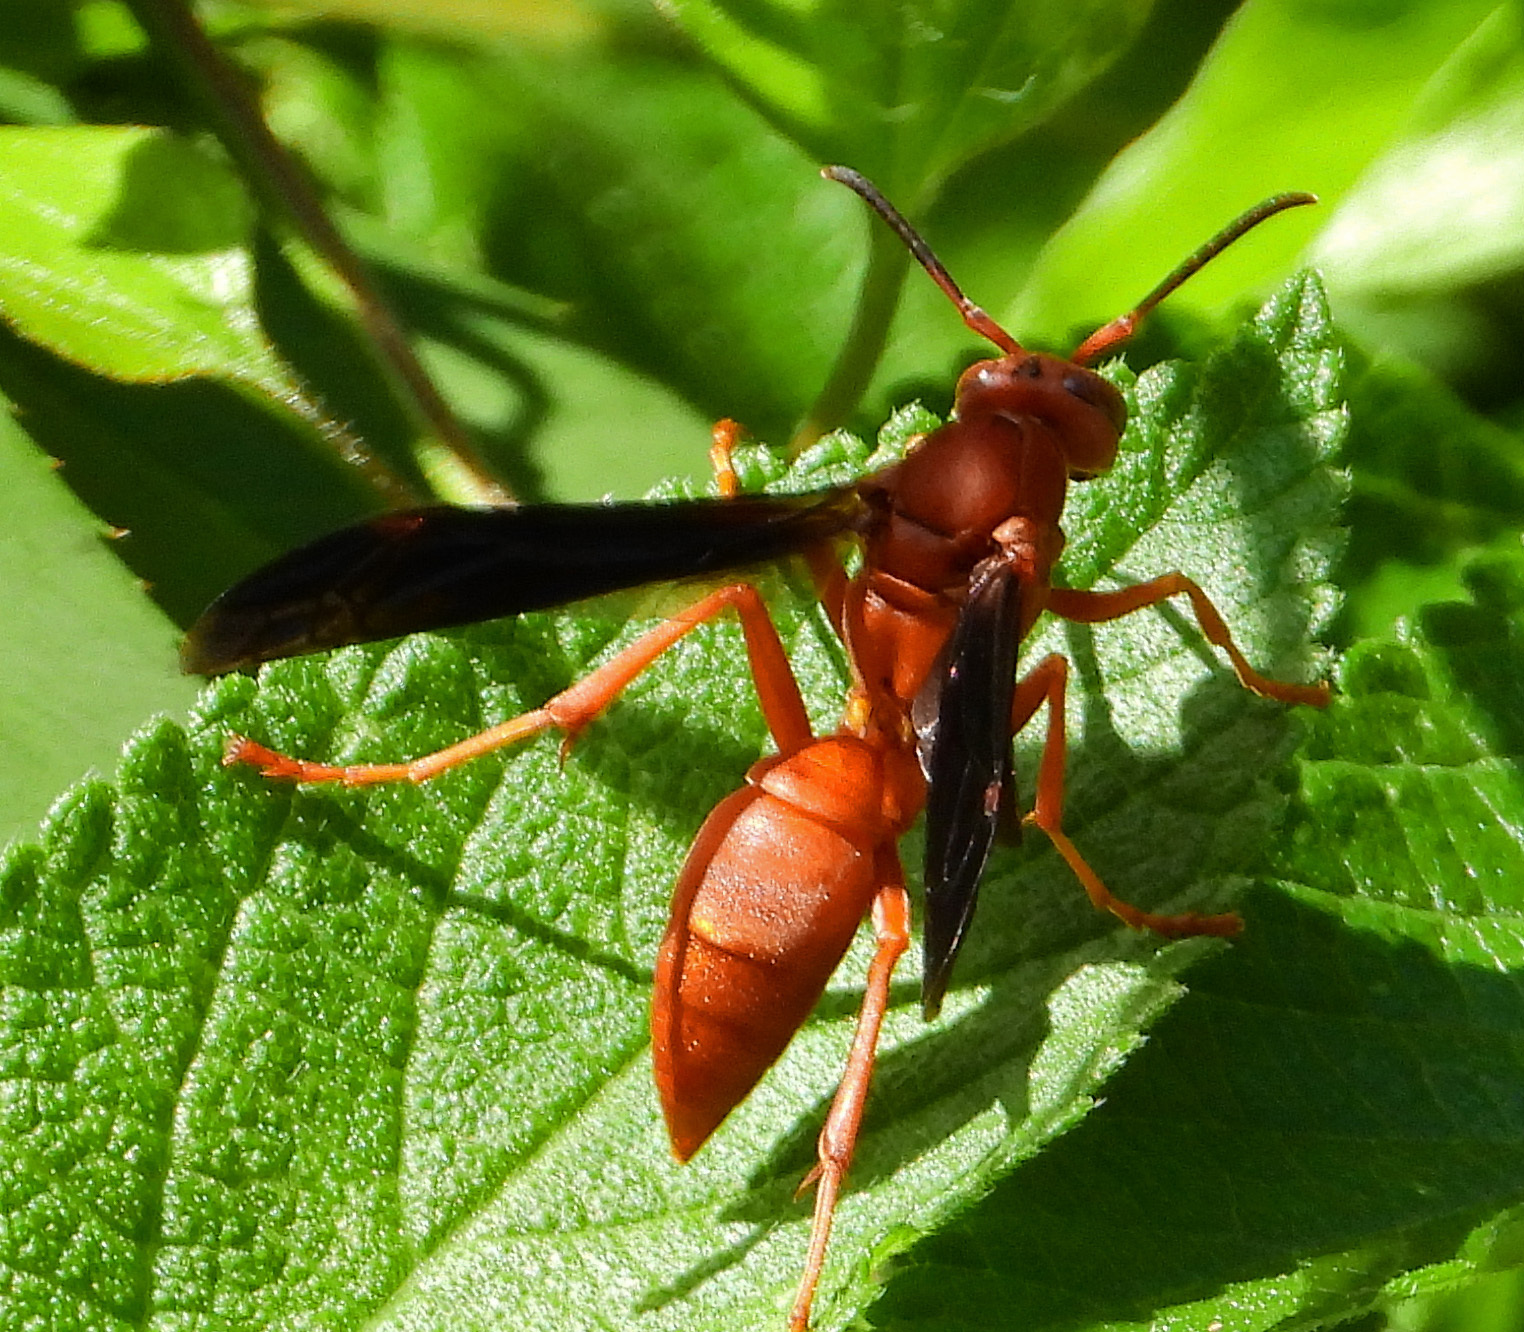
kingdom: Animalia
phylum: Arthropoda
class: Insecta
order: Hymenoptera
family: Eumenidae
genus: Polistes
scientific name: Polistes carolina
